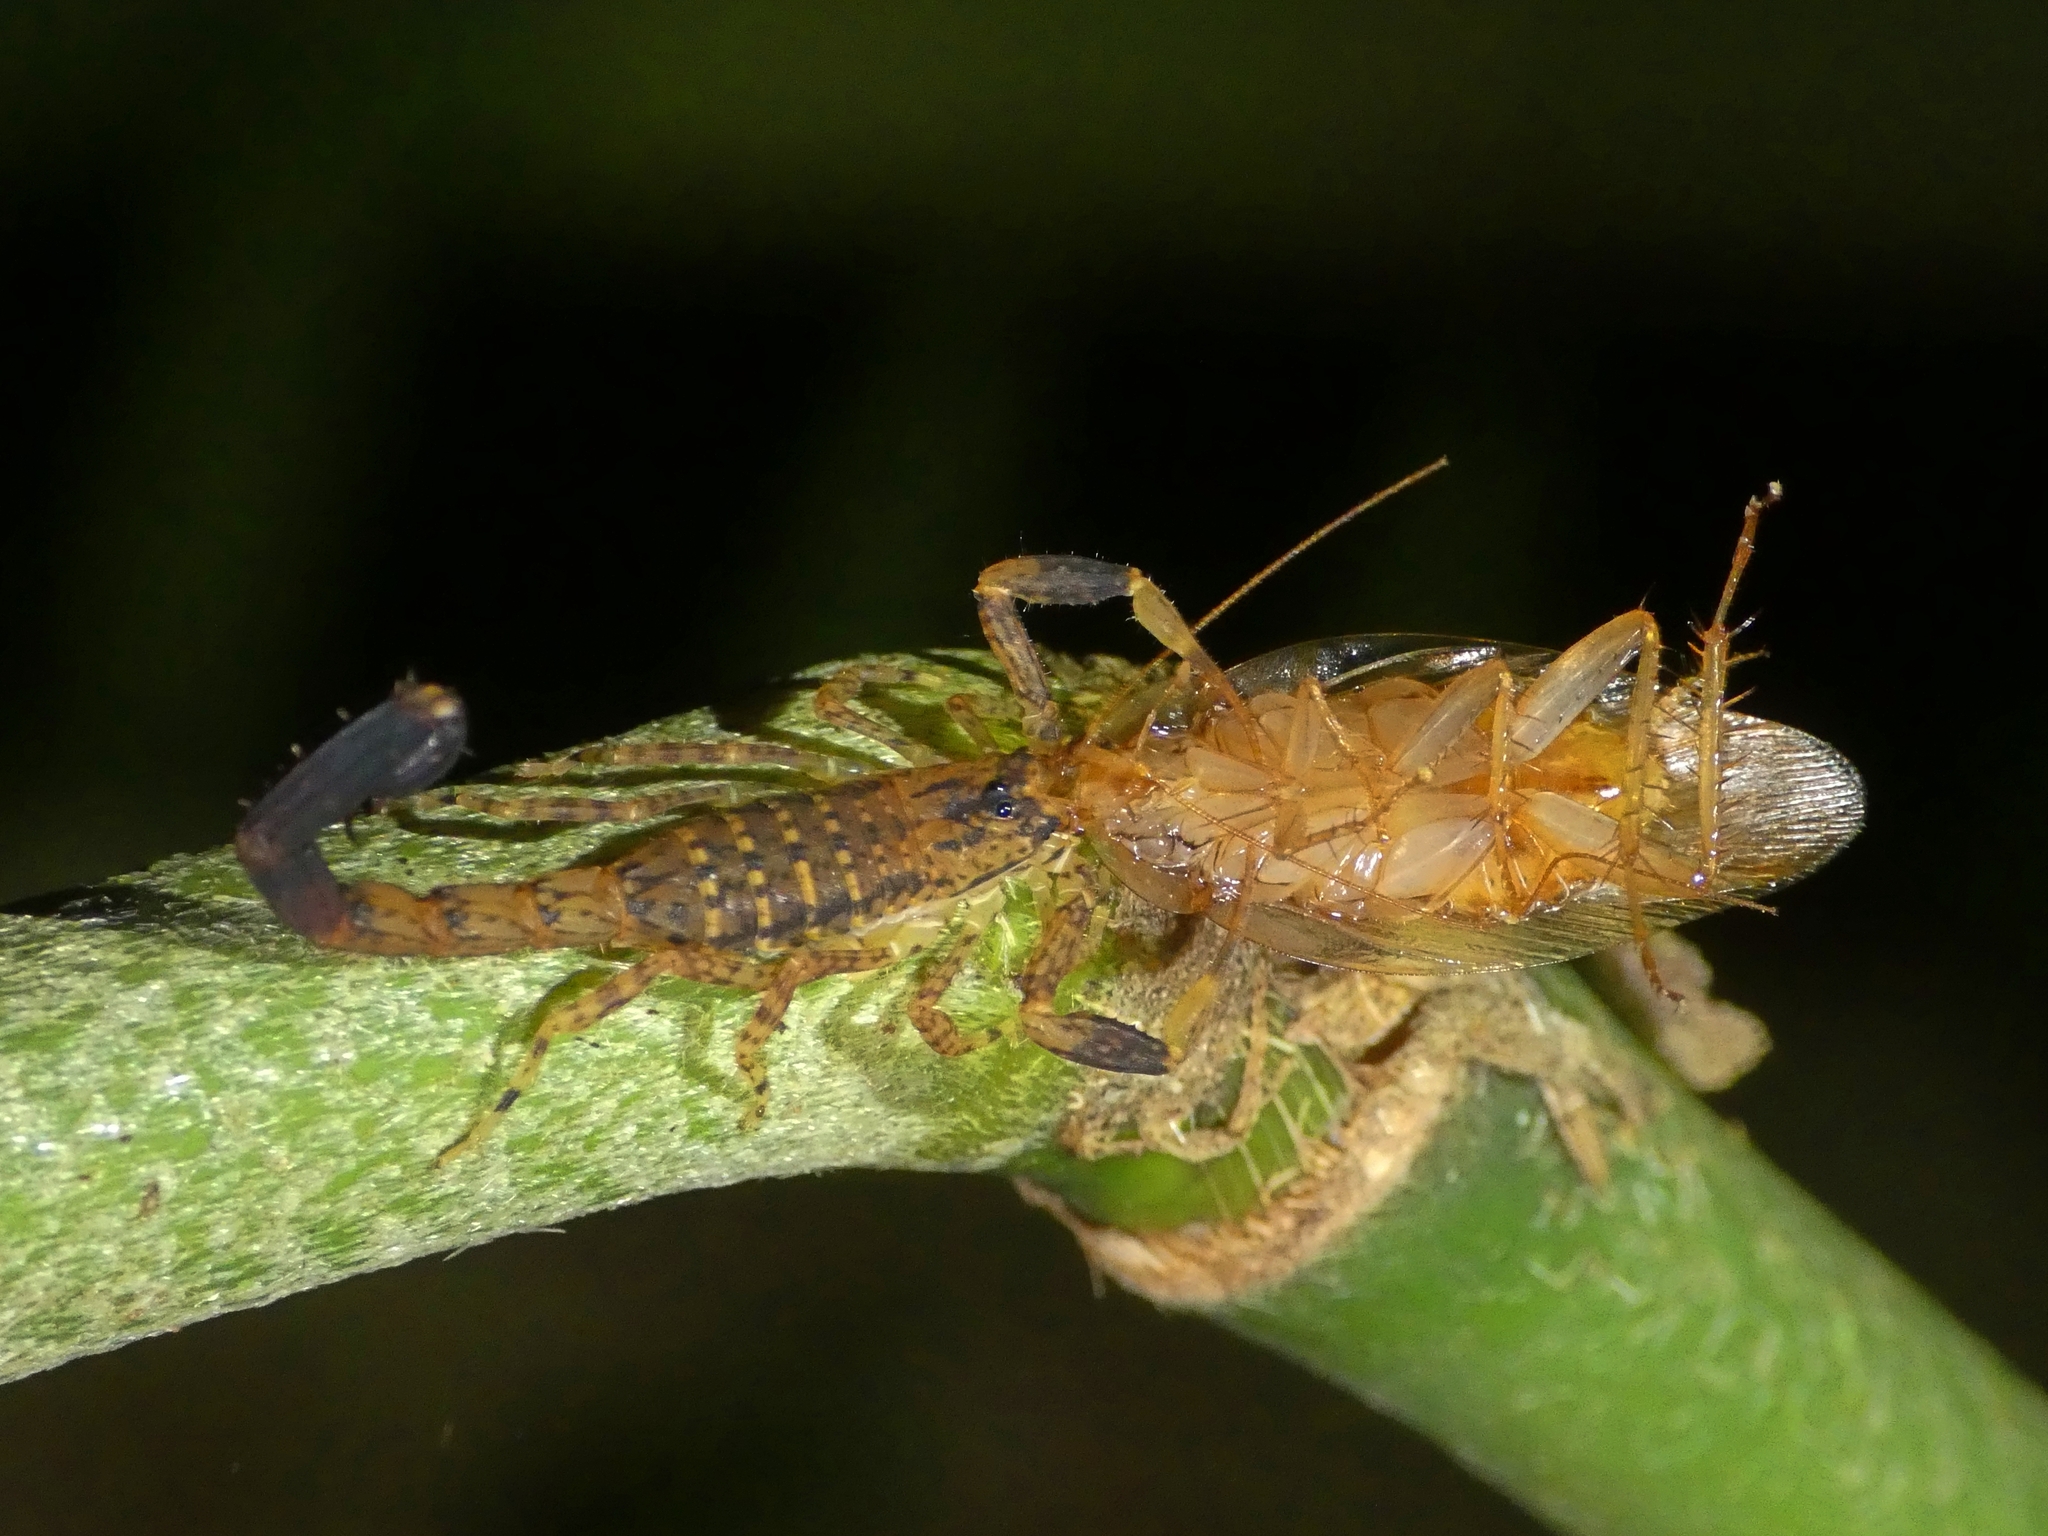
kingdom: Animalia
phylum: Arthropoda
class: Arachnida
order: Scorpiones
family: Buthidae
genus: Lychas
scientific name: Lychas variatus
